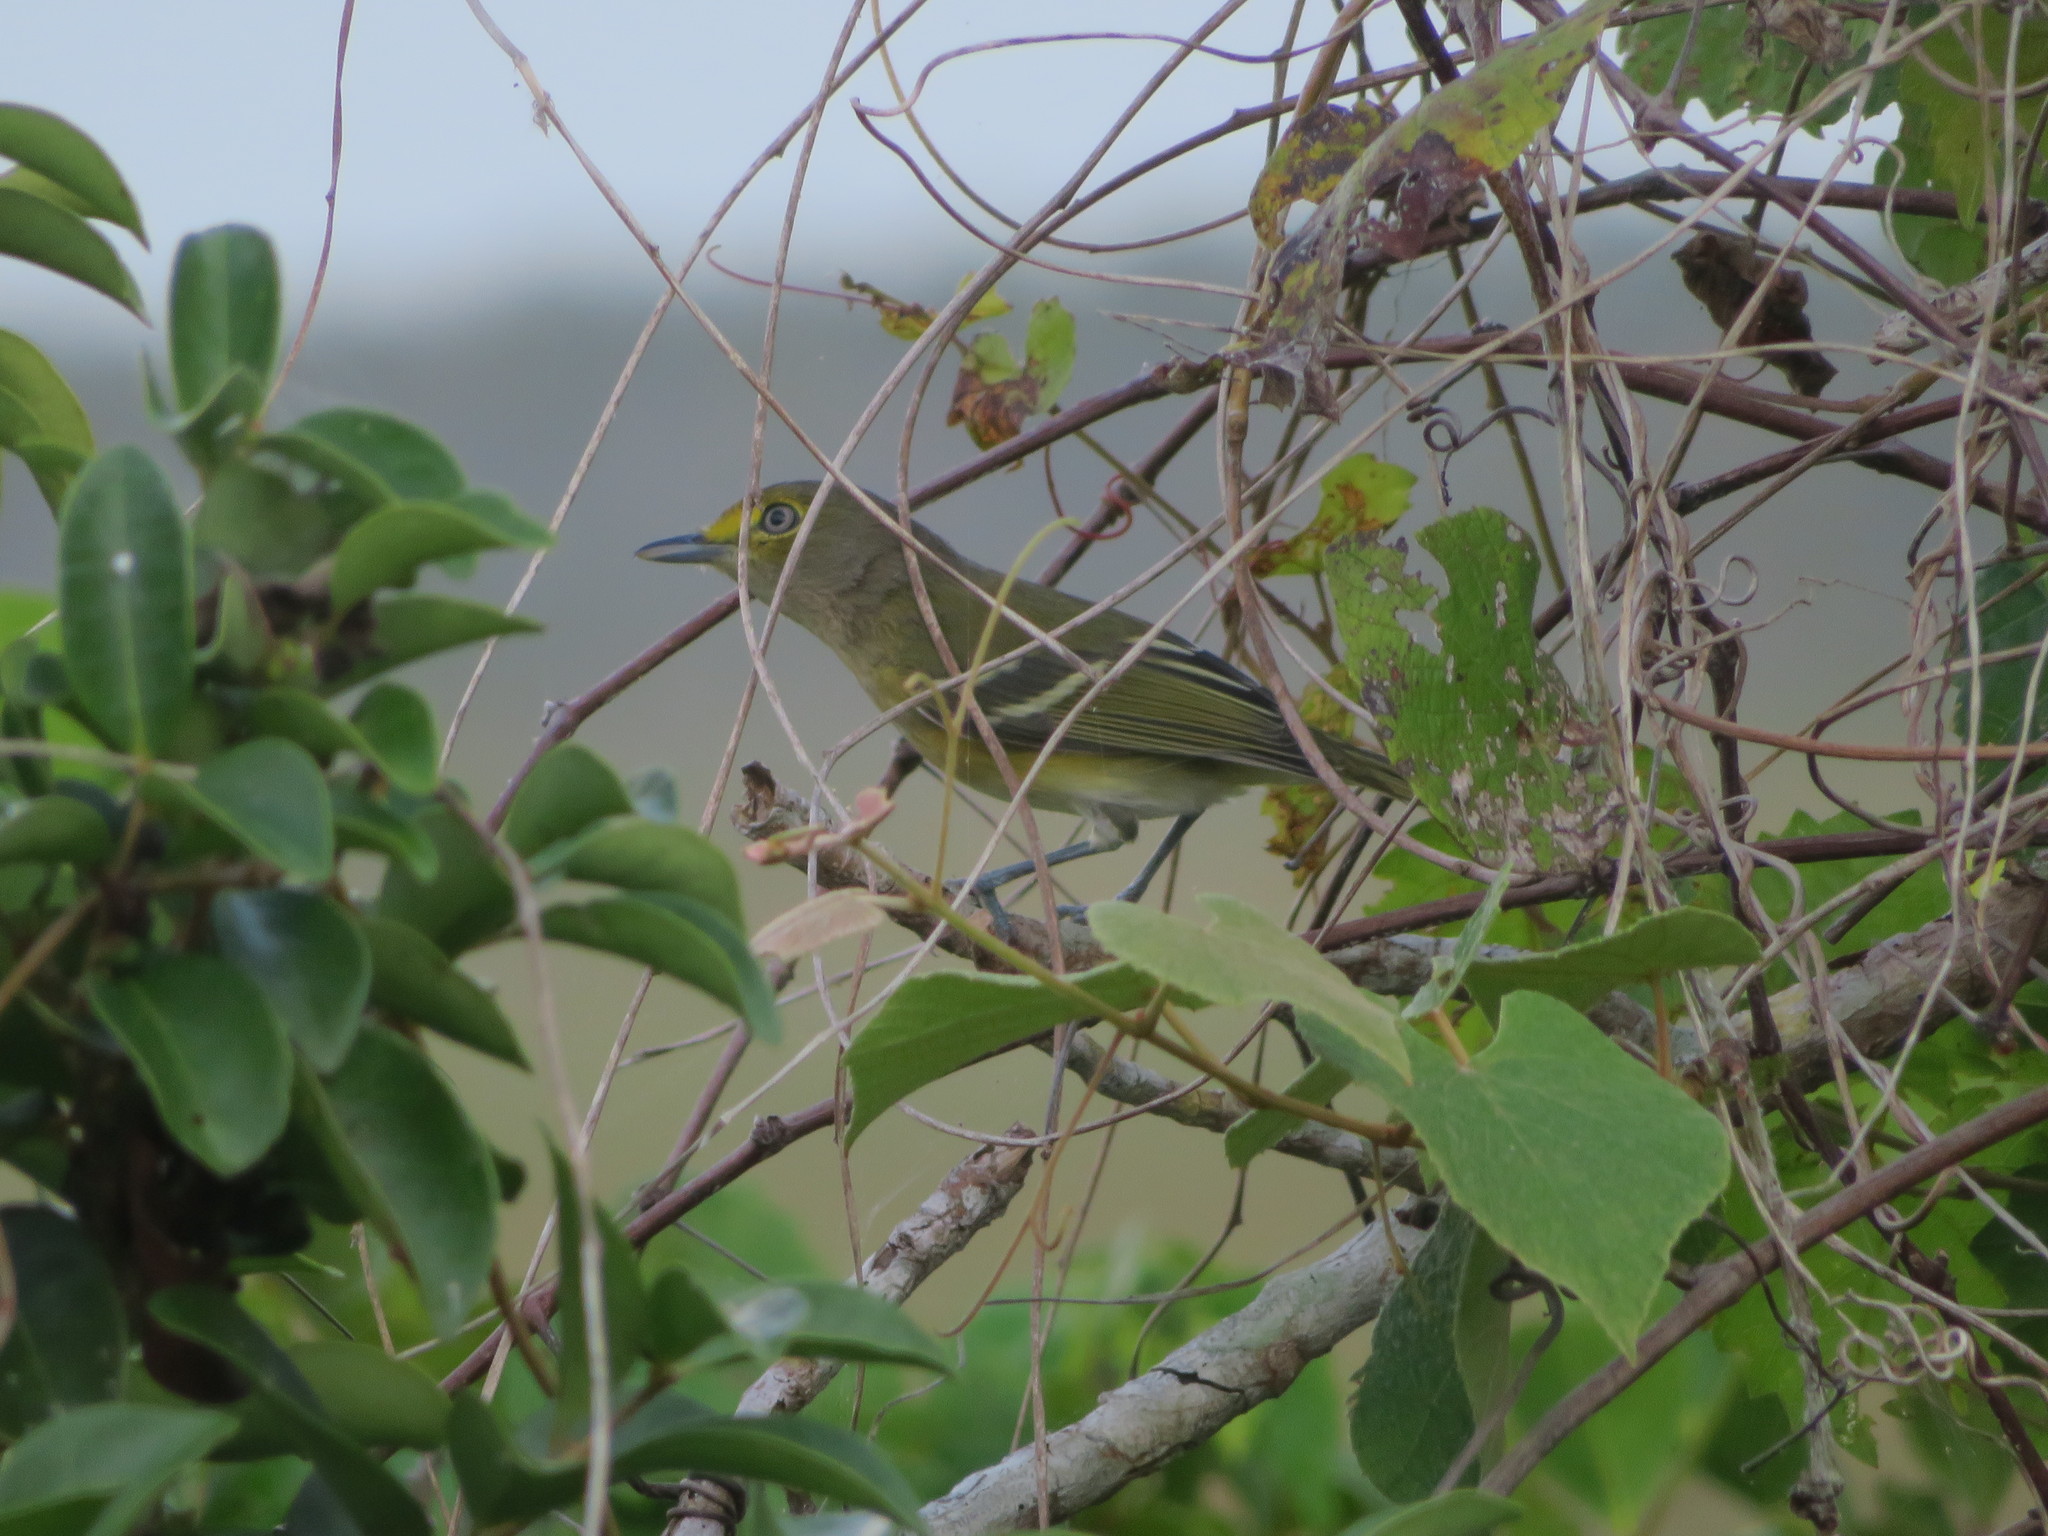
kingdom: Animalia
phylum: Chordata
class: Aves
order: Passeriformes
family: Vireonidae
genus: Vireo
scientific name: Vireo griseus
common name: White-eyed vireo
